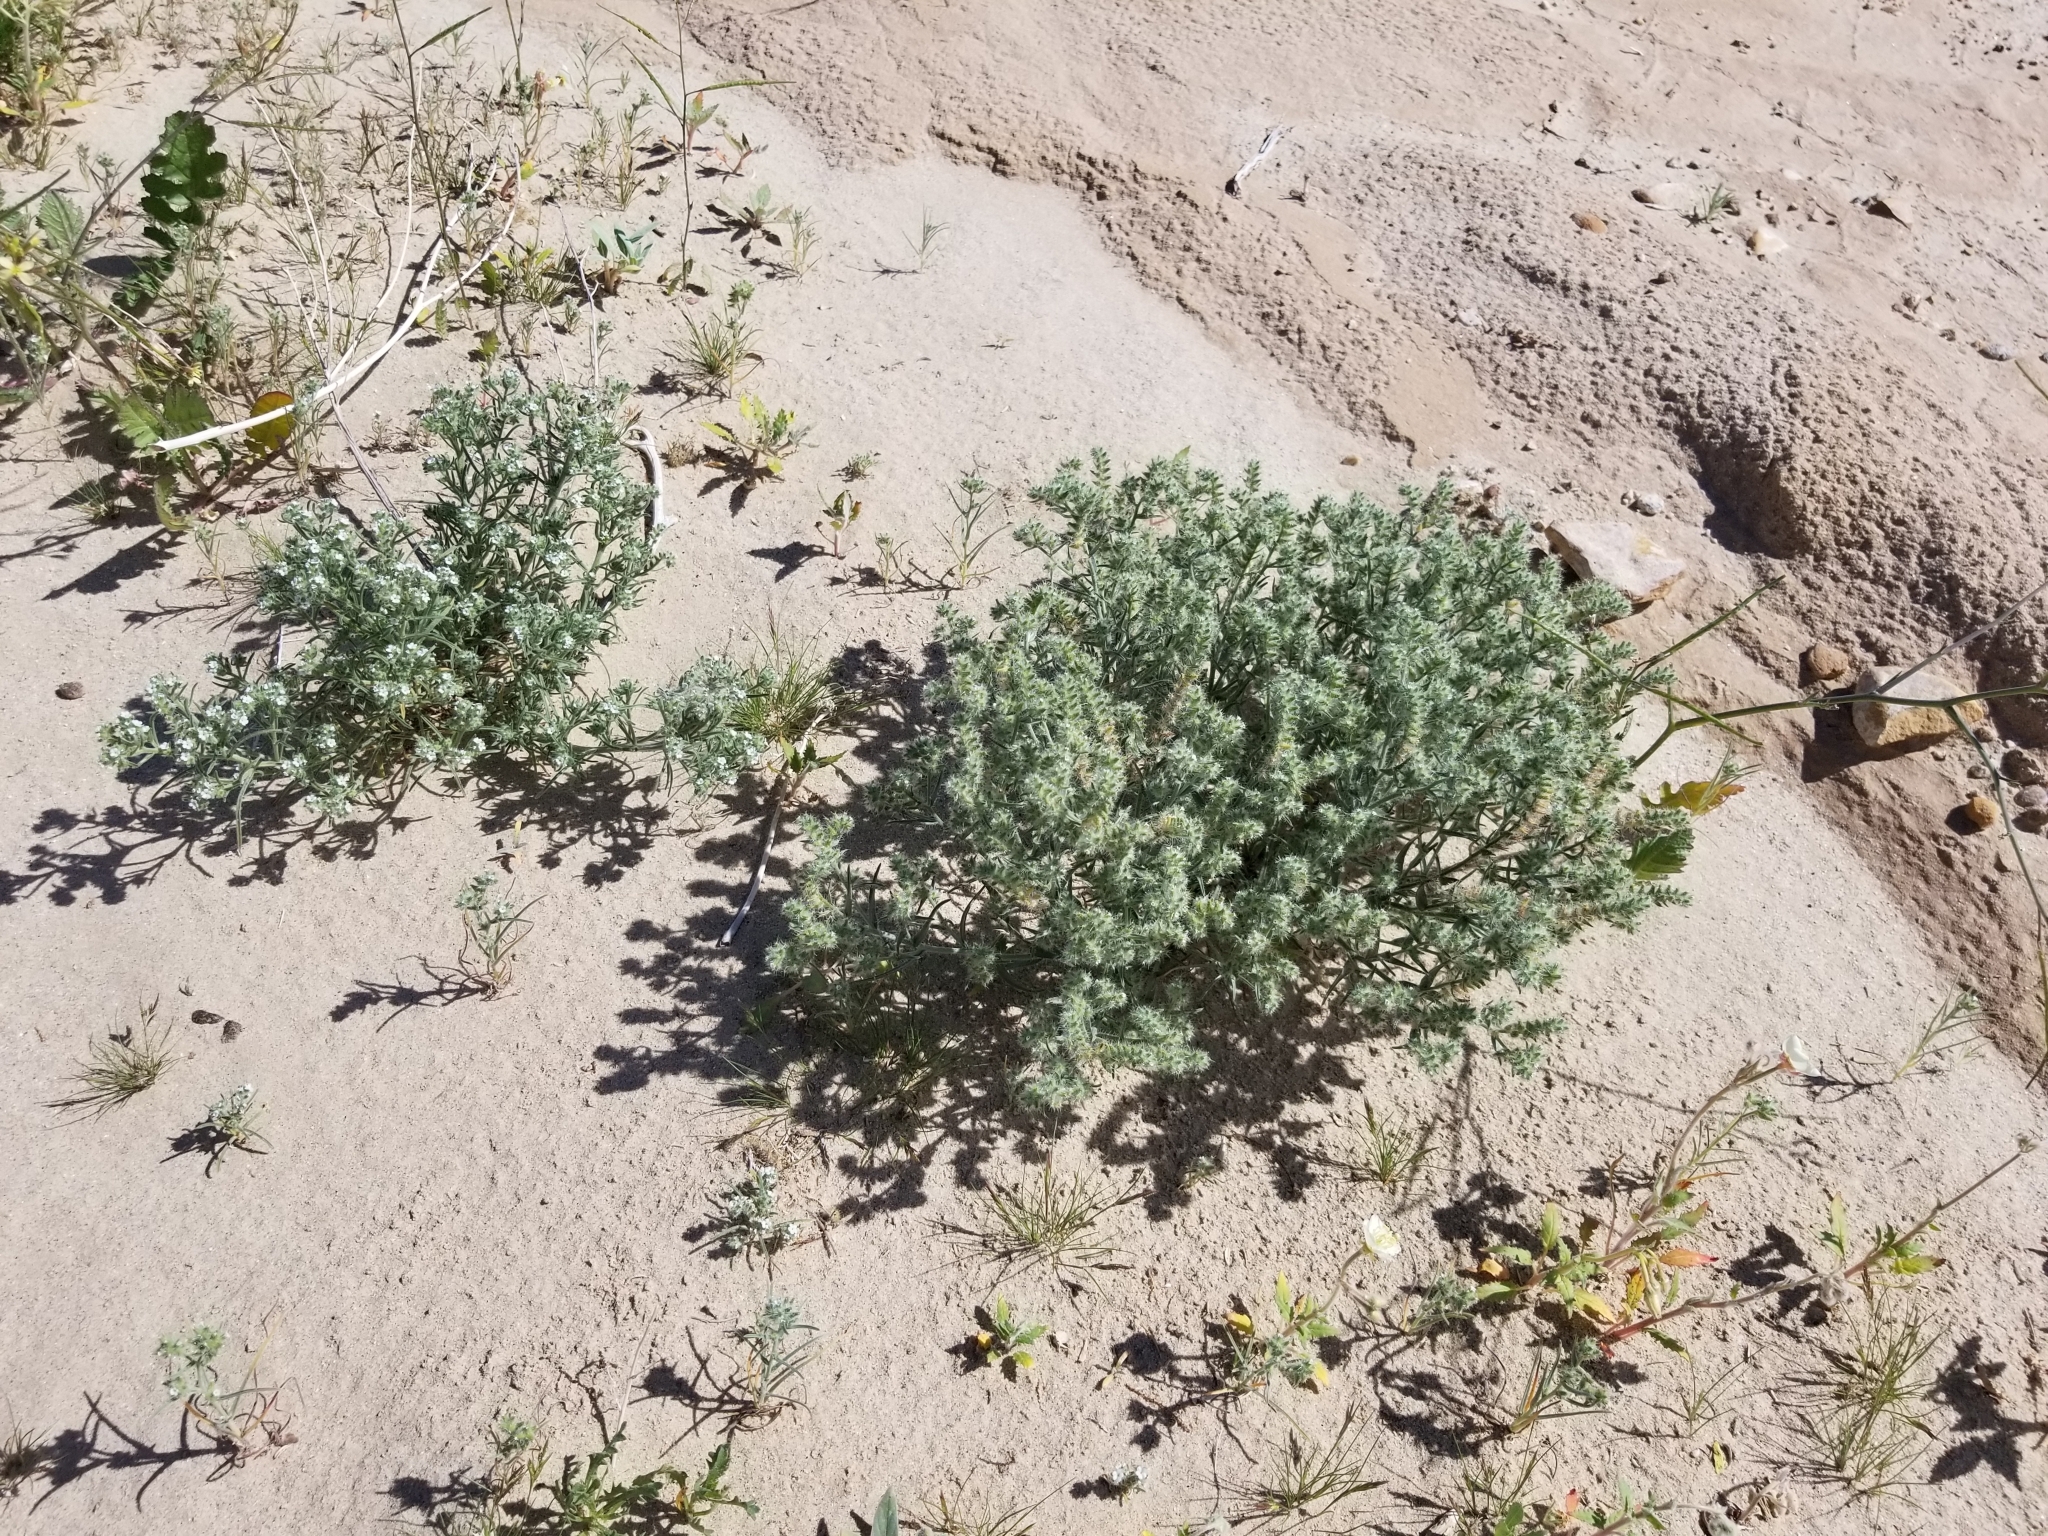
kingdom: Plantae
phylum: Tracheophyta
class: Magnoliopsida
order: Boraginales
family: Boraginaceae
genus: Johnstonella
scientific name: Johnstonella angustifolia
